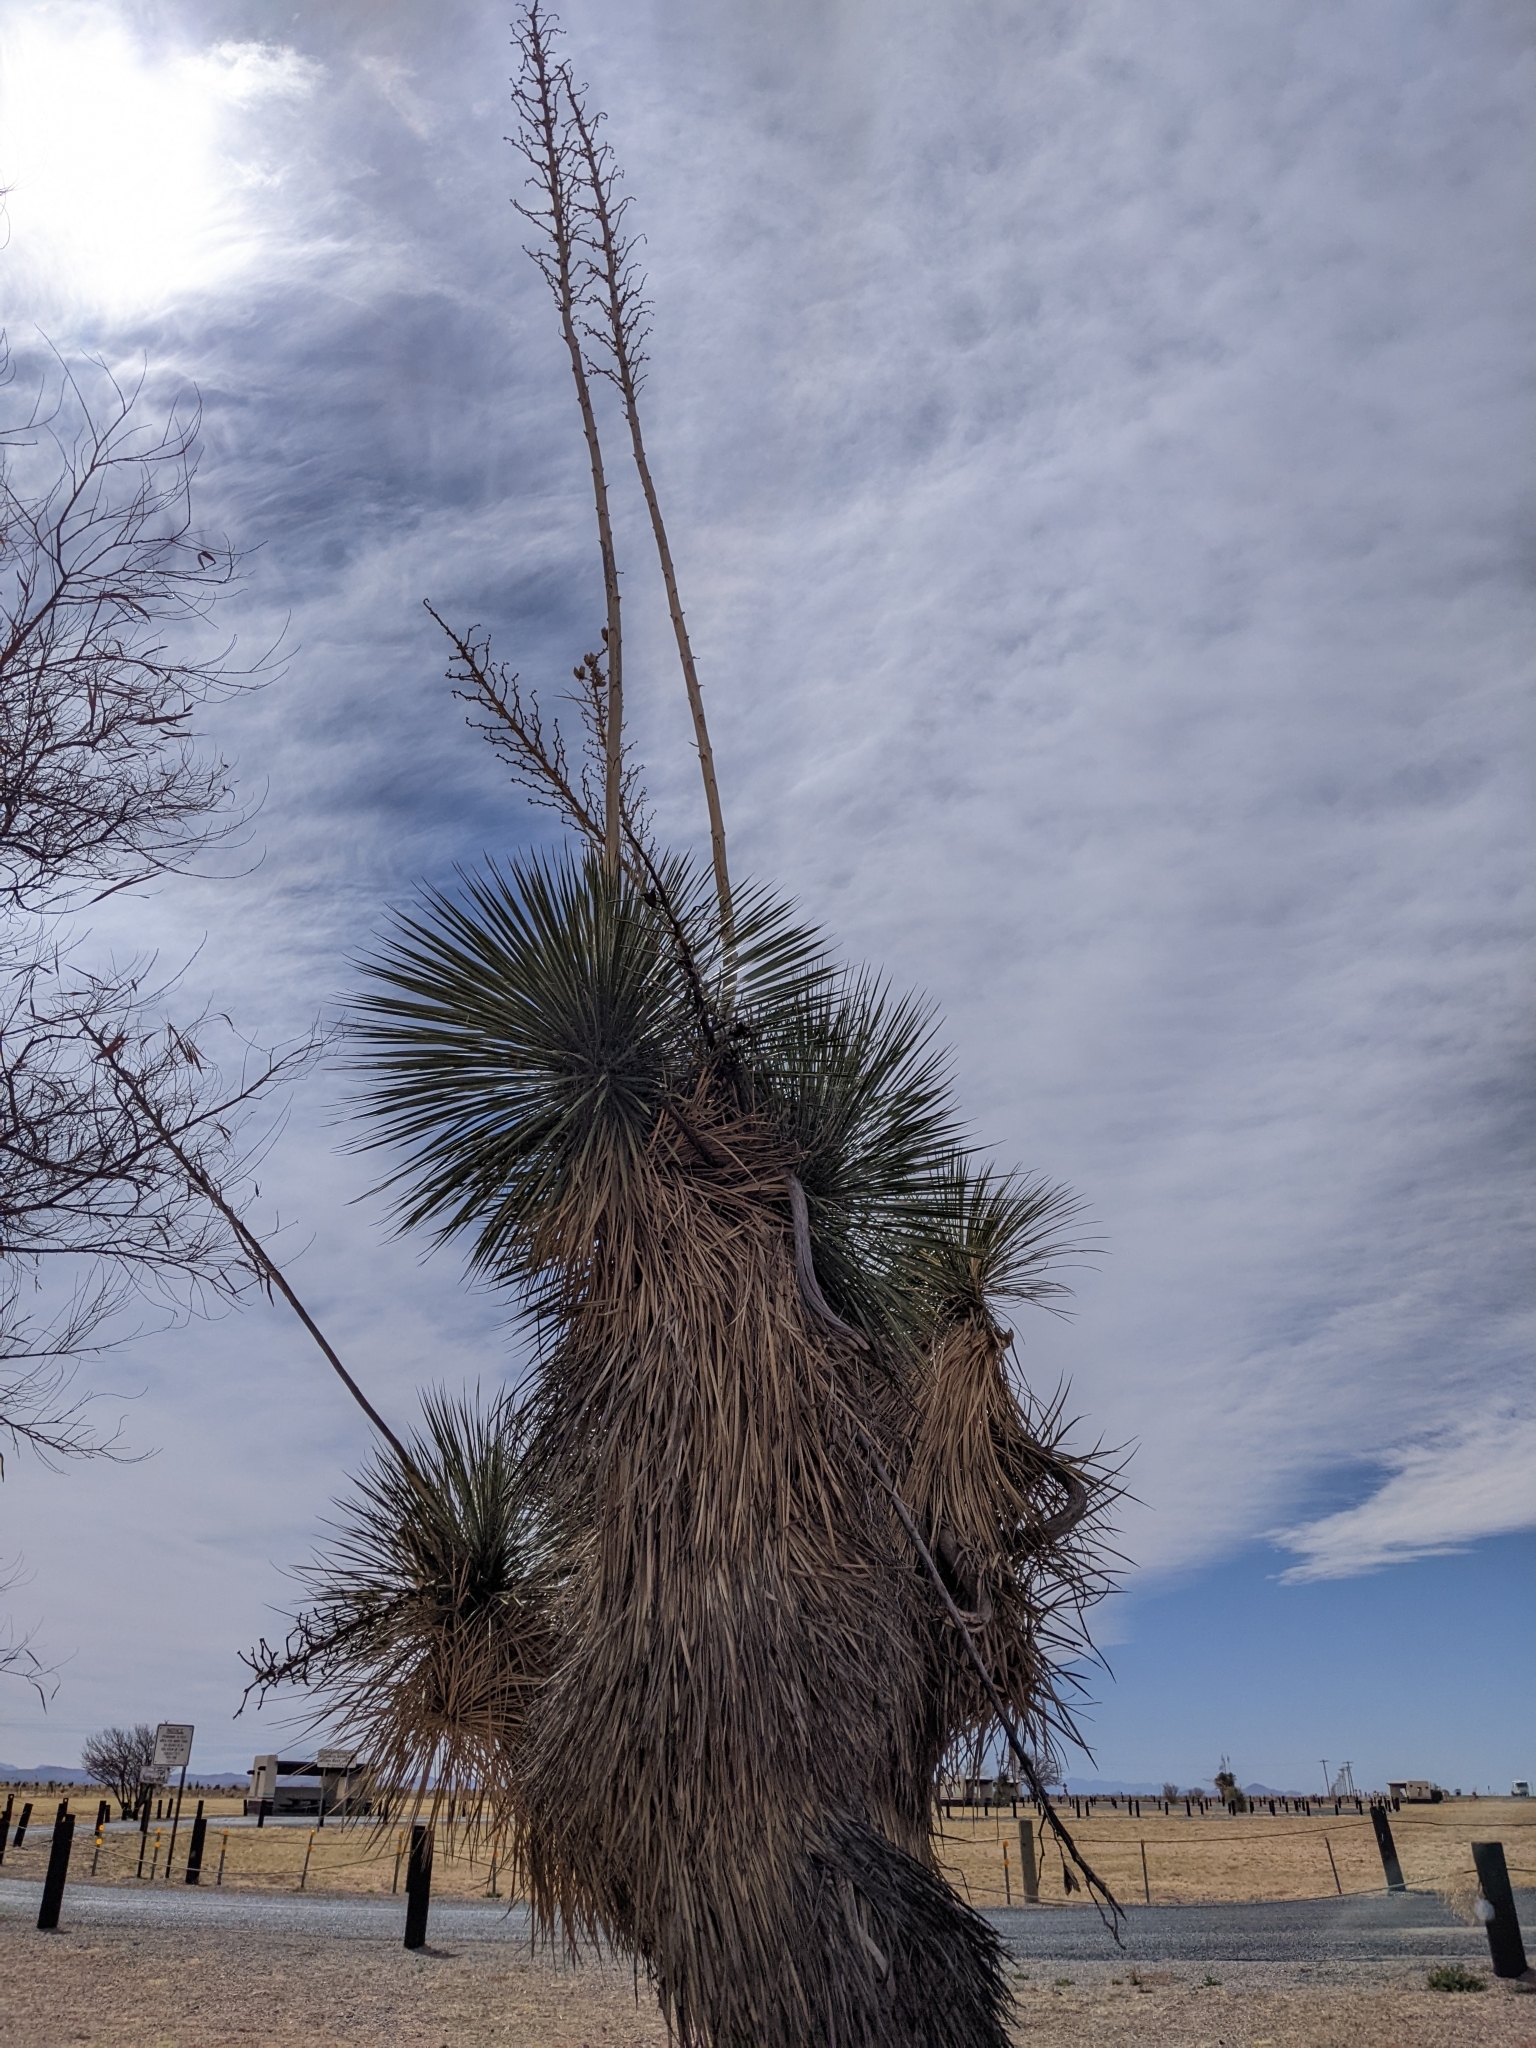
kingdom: Plantae
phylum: Tracheophyta
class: Liliopsida
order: Asparagales
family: Asparagaceae
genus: Yucca
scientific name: Yucca elata
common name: Palmella
